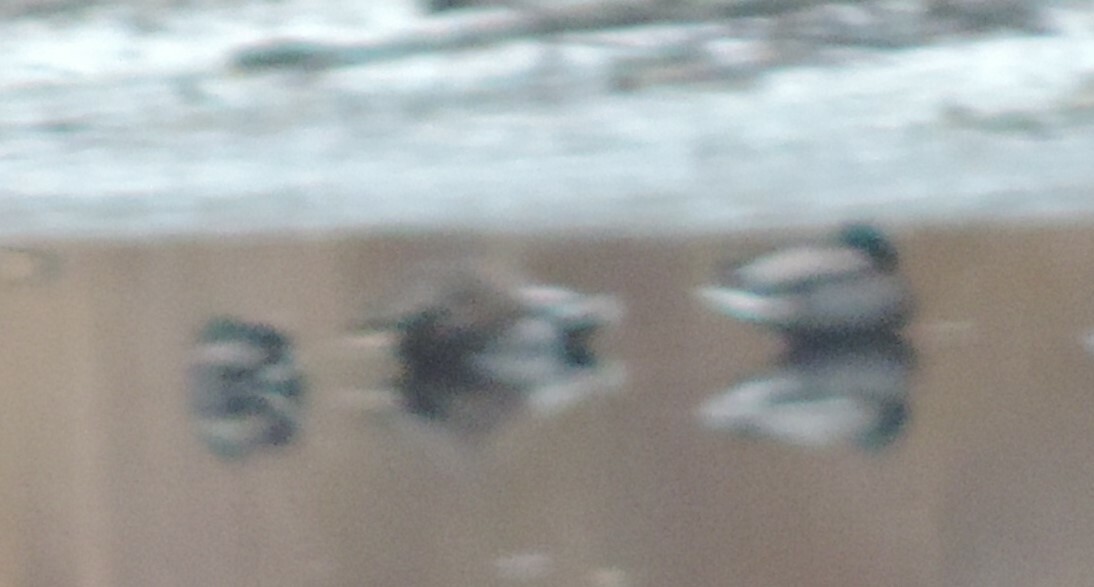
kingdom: Animalia
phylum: Chordata
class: Aves
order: Anseriformes
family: Anatidae
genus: Anas
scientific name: Anas platyrhynchos
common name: Mallard
